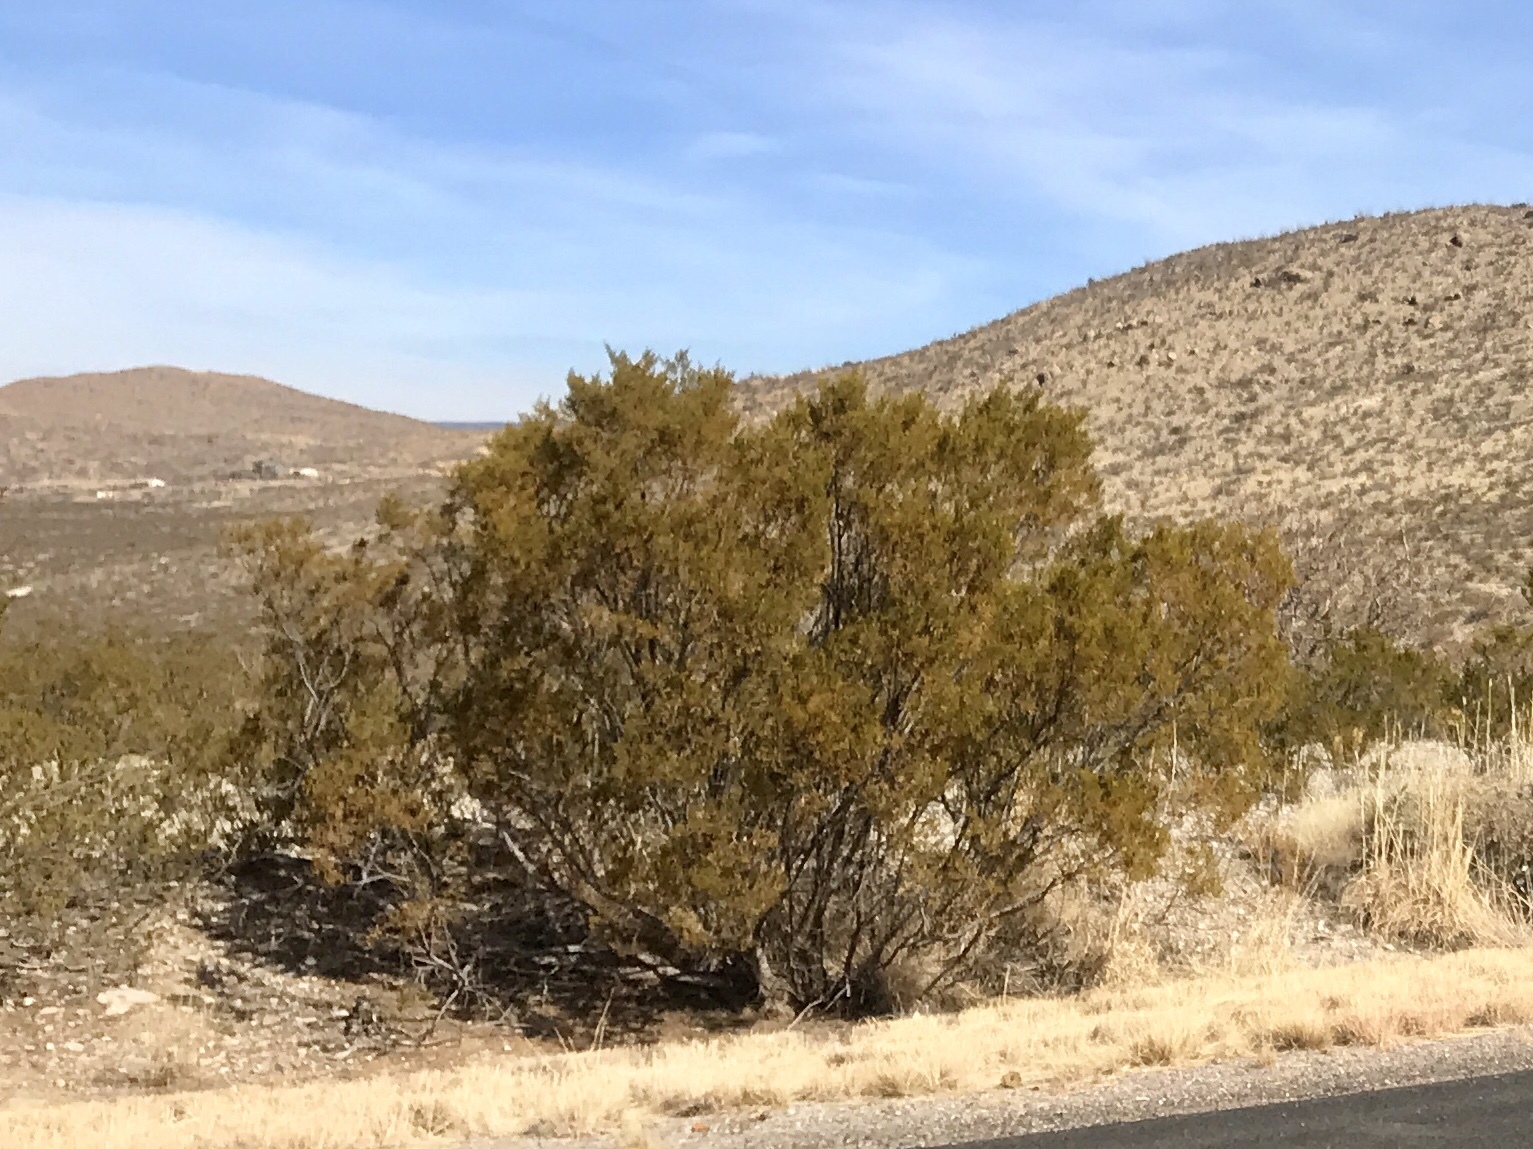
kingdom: Plantae
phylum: Tracheophyta
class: Magnoliopsida
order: Zygophyllales
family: Zygophyllaceae
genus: Larrea
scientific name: Larrea tridentata
